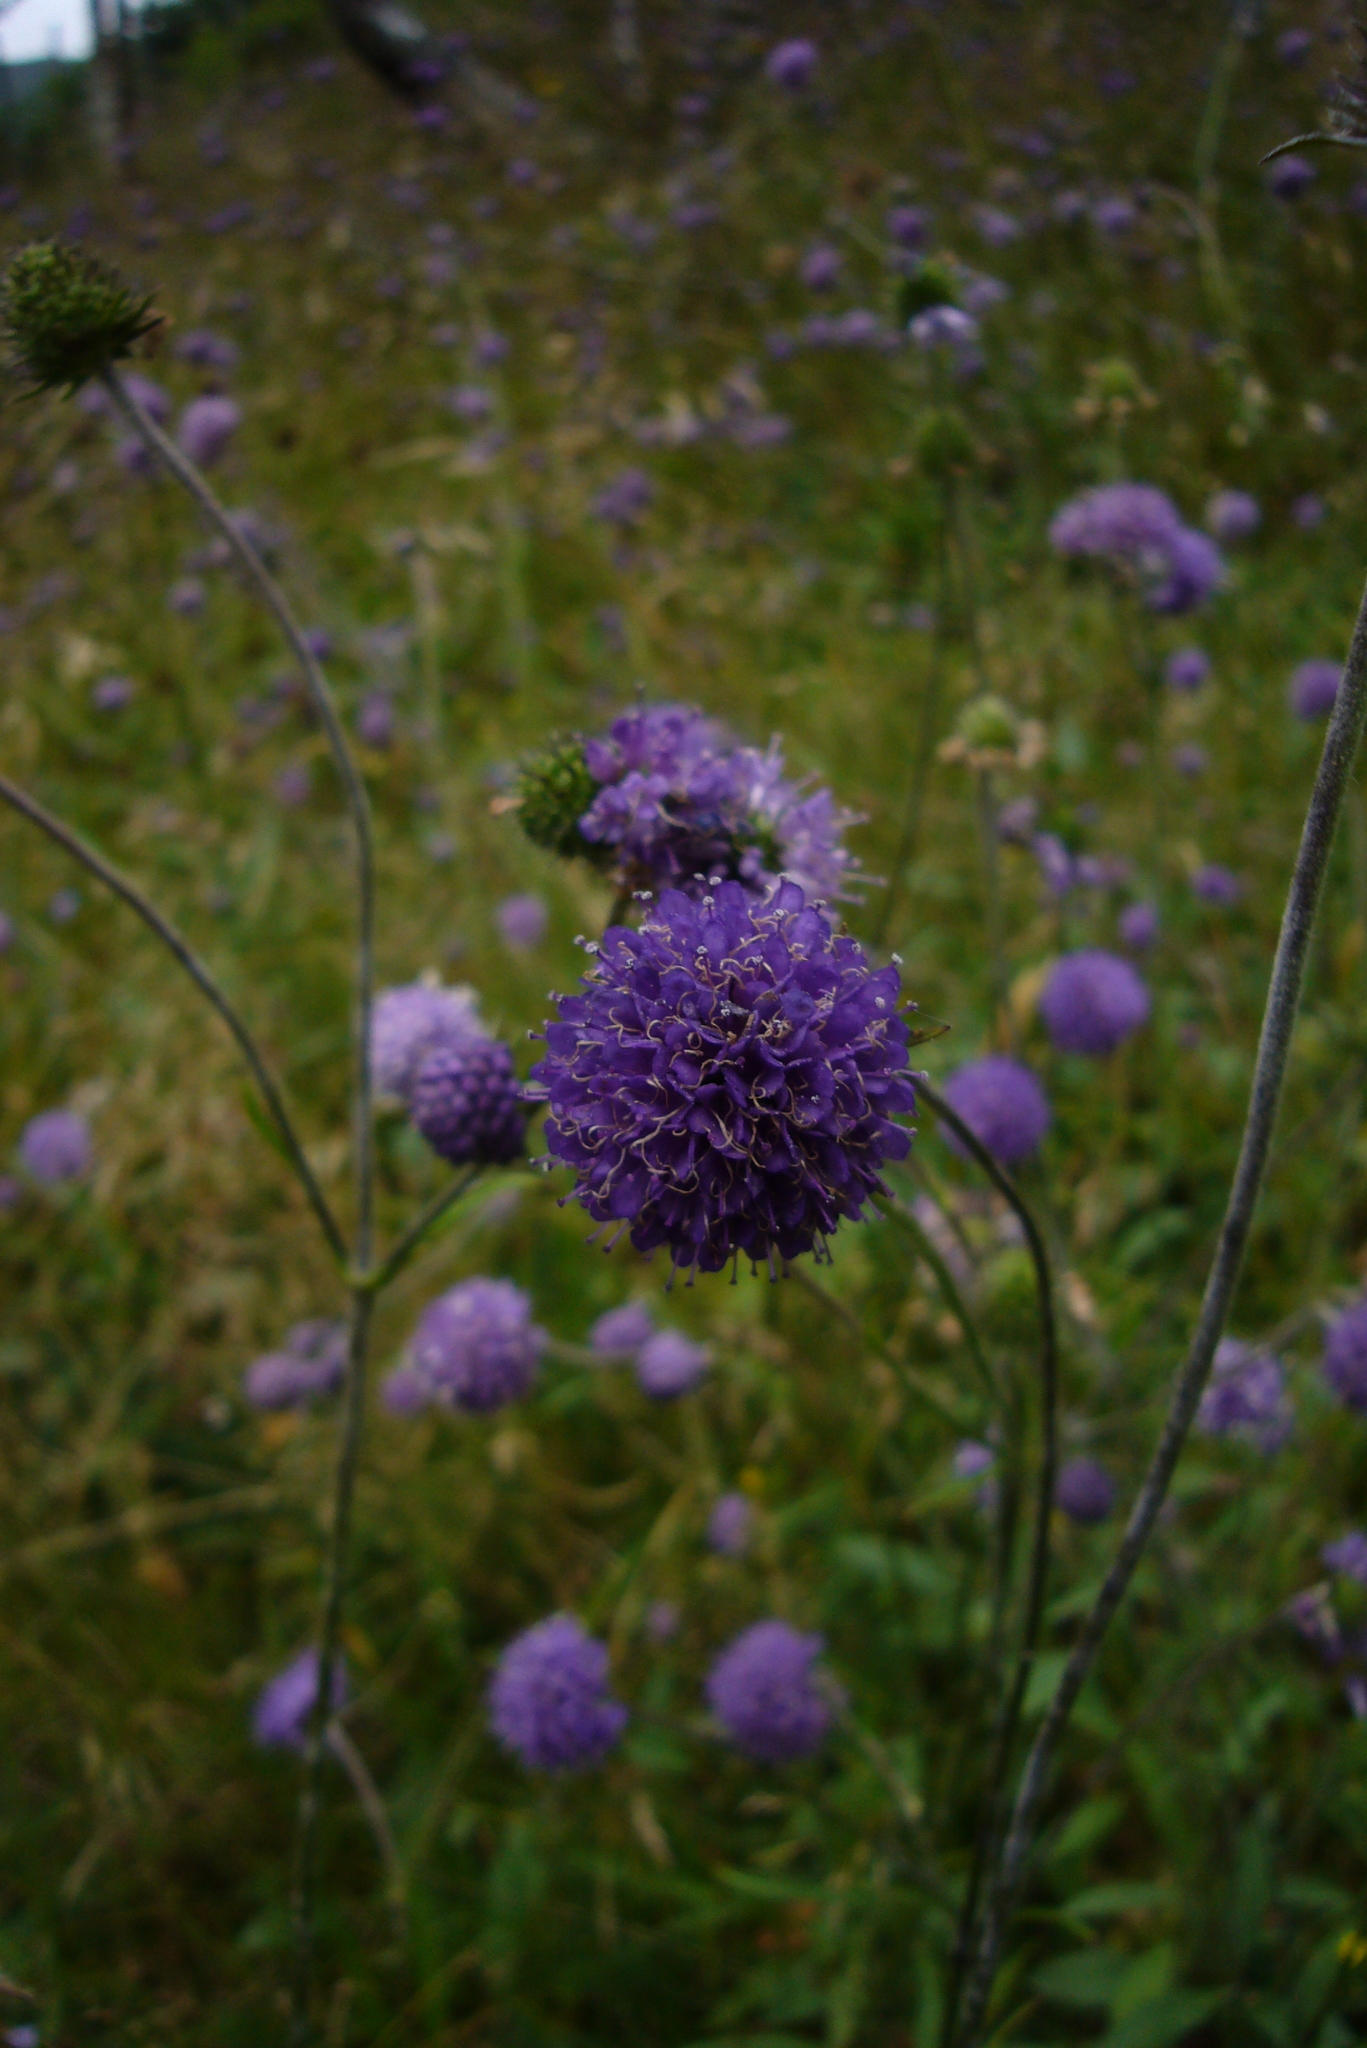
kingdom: Plantae
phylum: Tracheophyta
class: Magnoliopsida
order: Dipsacales
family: Caprifoliaceae
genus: Succisa
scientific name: Succisa pratensis
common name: Devil's-bit
